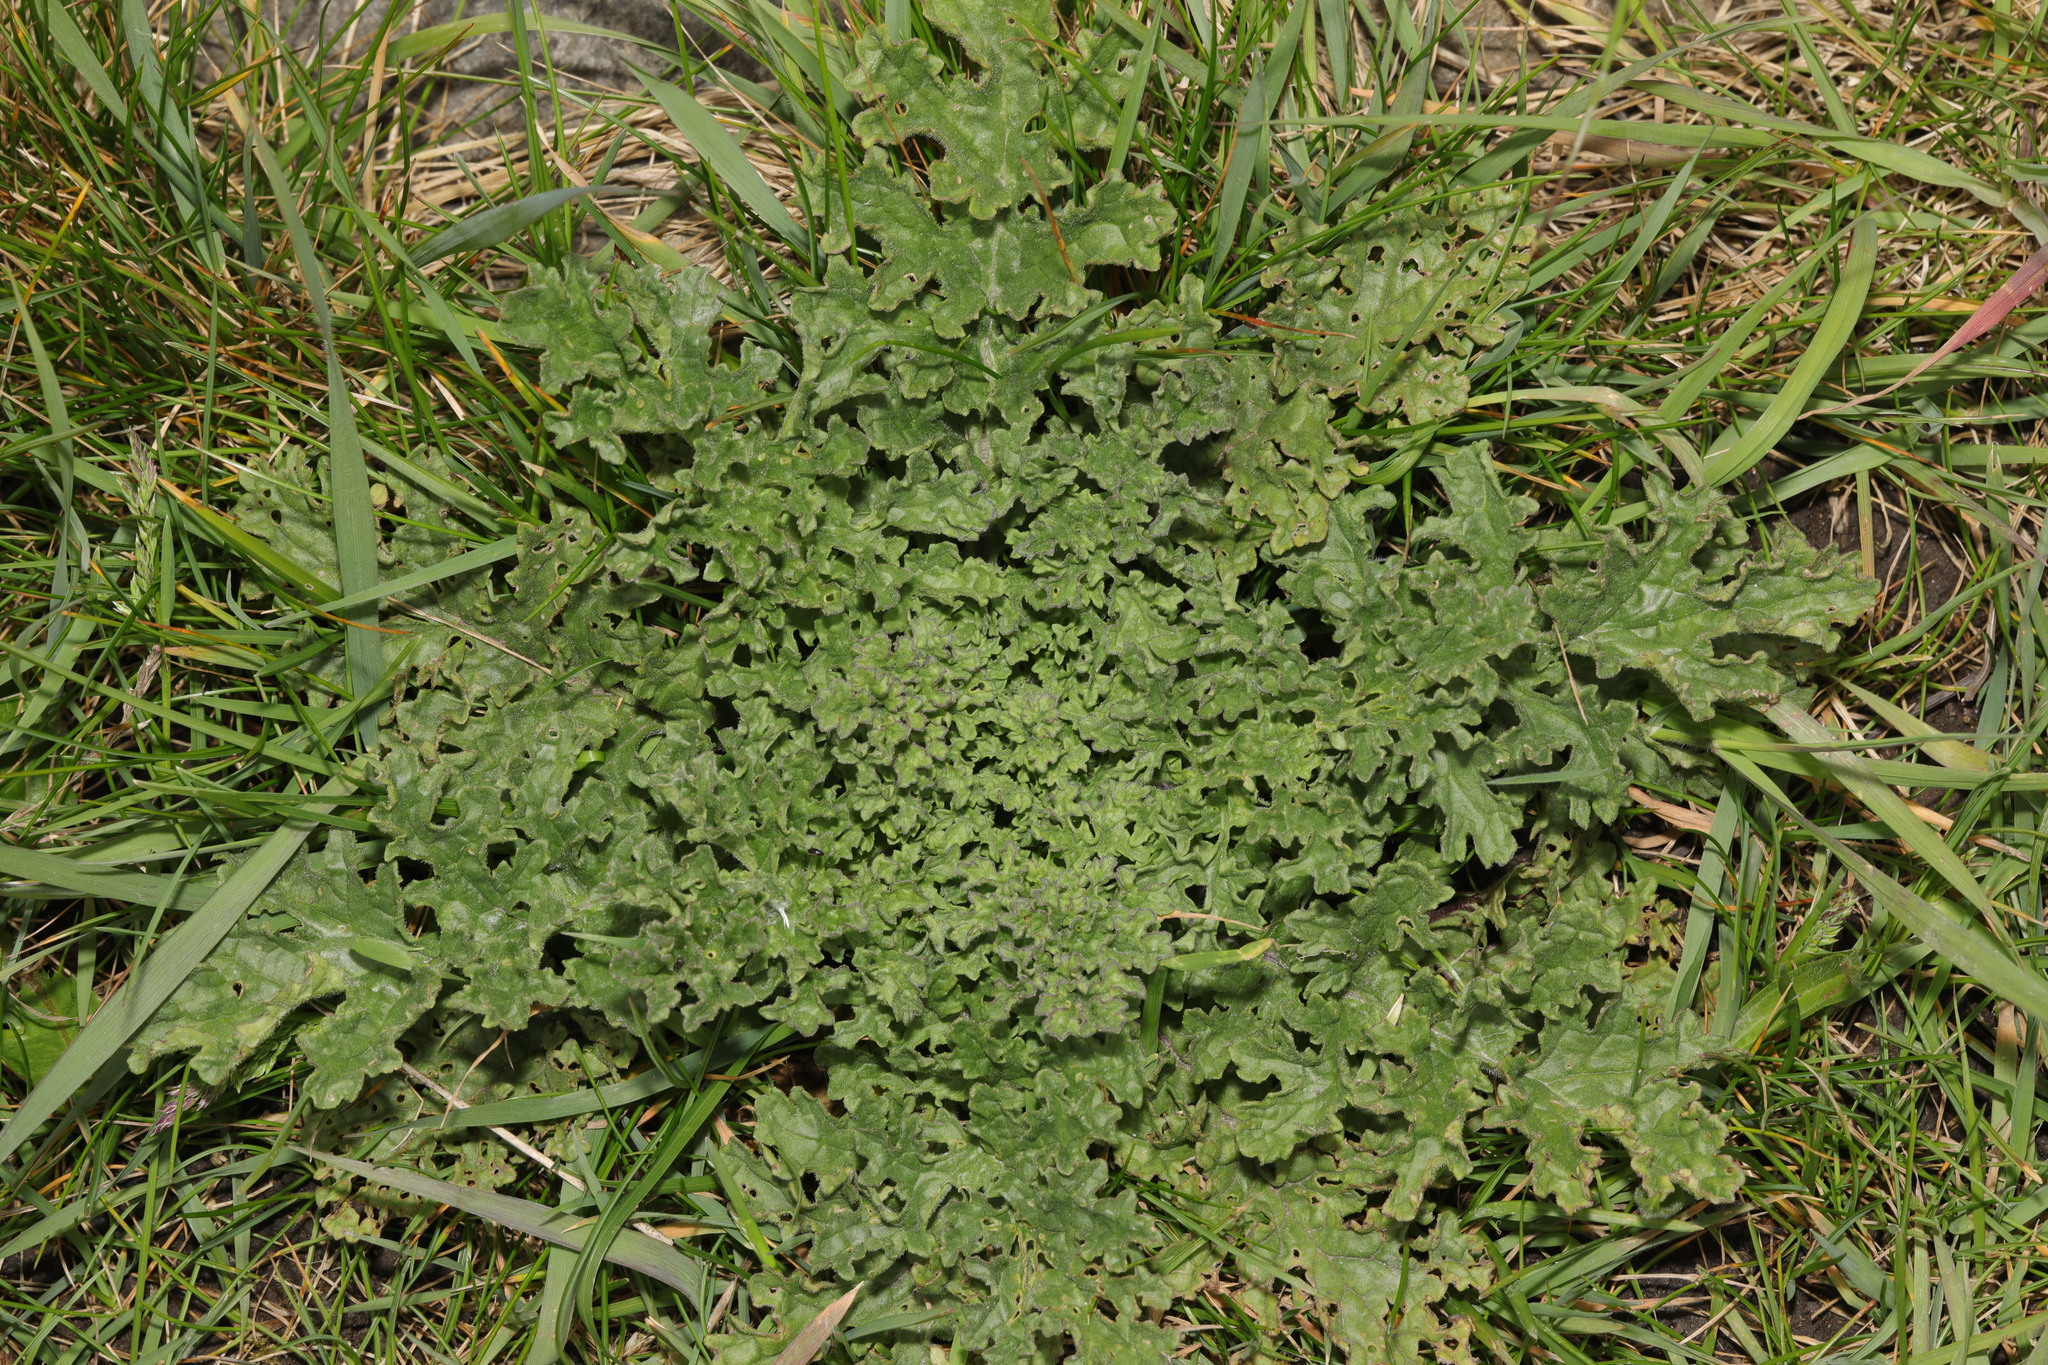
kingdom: Plantae
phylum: Tracheophyta
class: Magnoliopsida
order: Asterales
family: Asteraceae
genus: Jacobaea
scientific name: Jacobaea vulgaris
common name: Stinking willie
